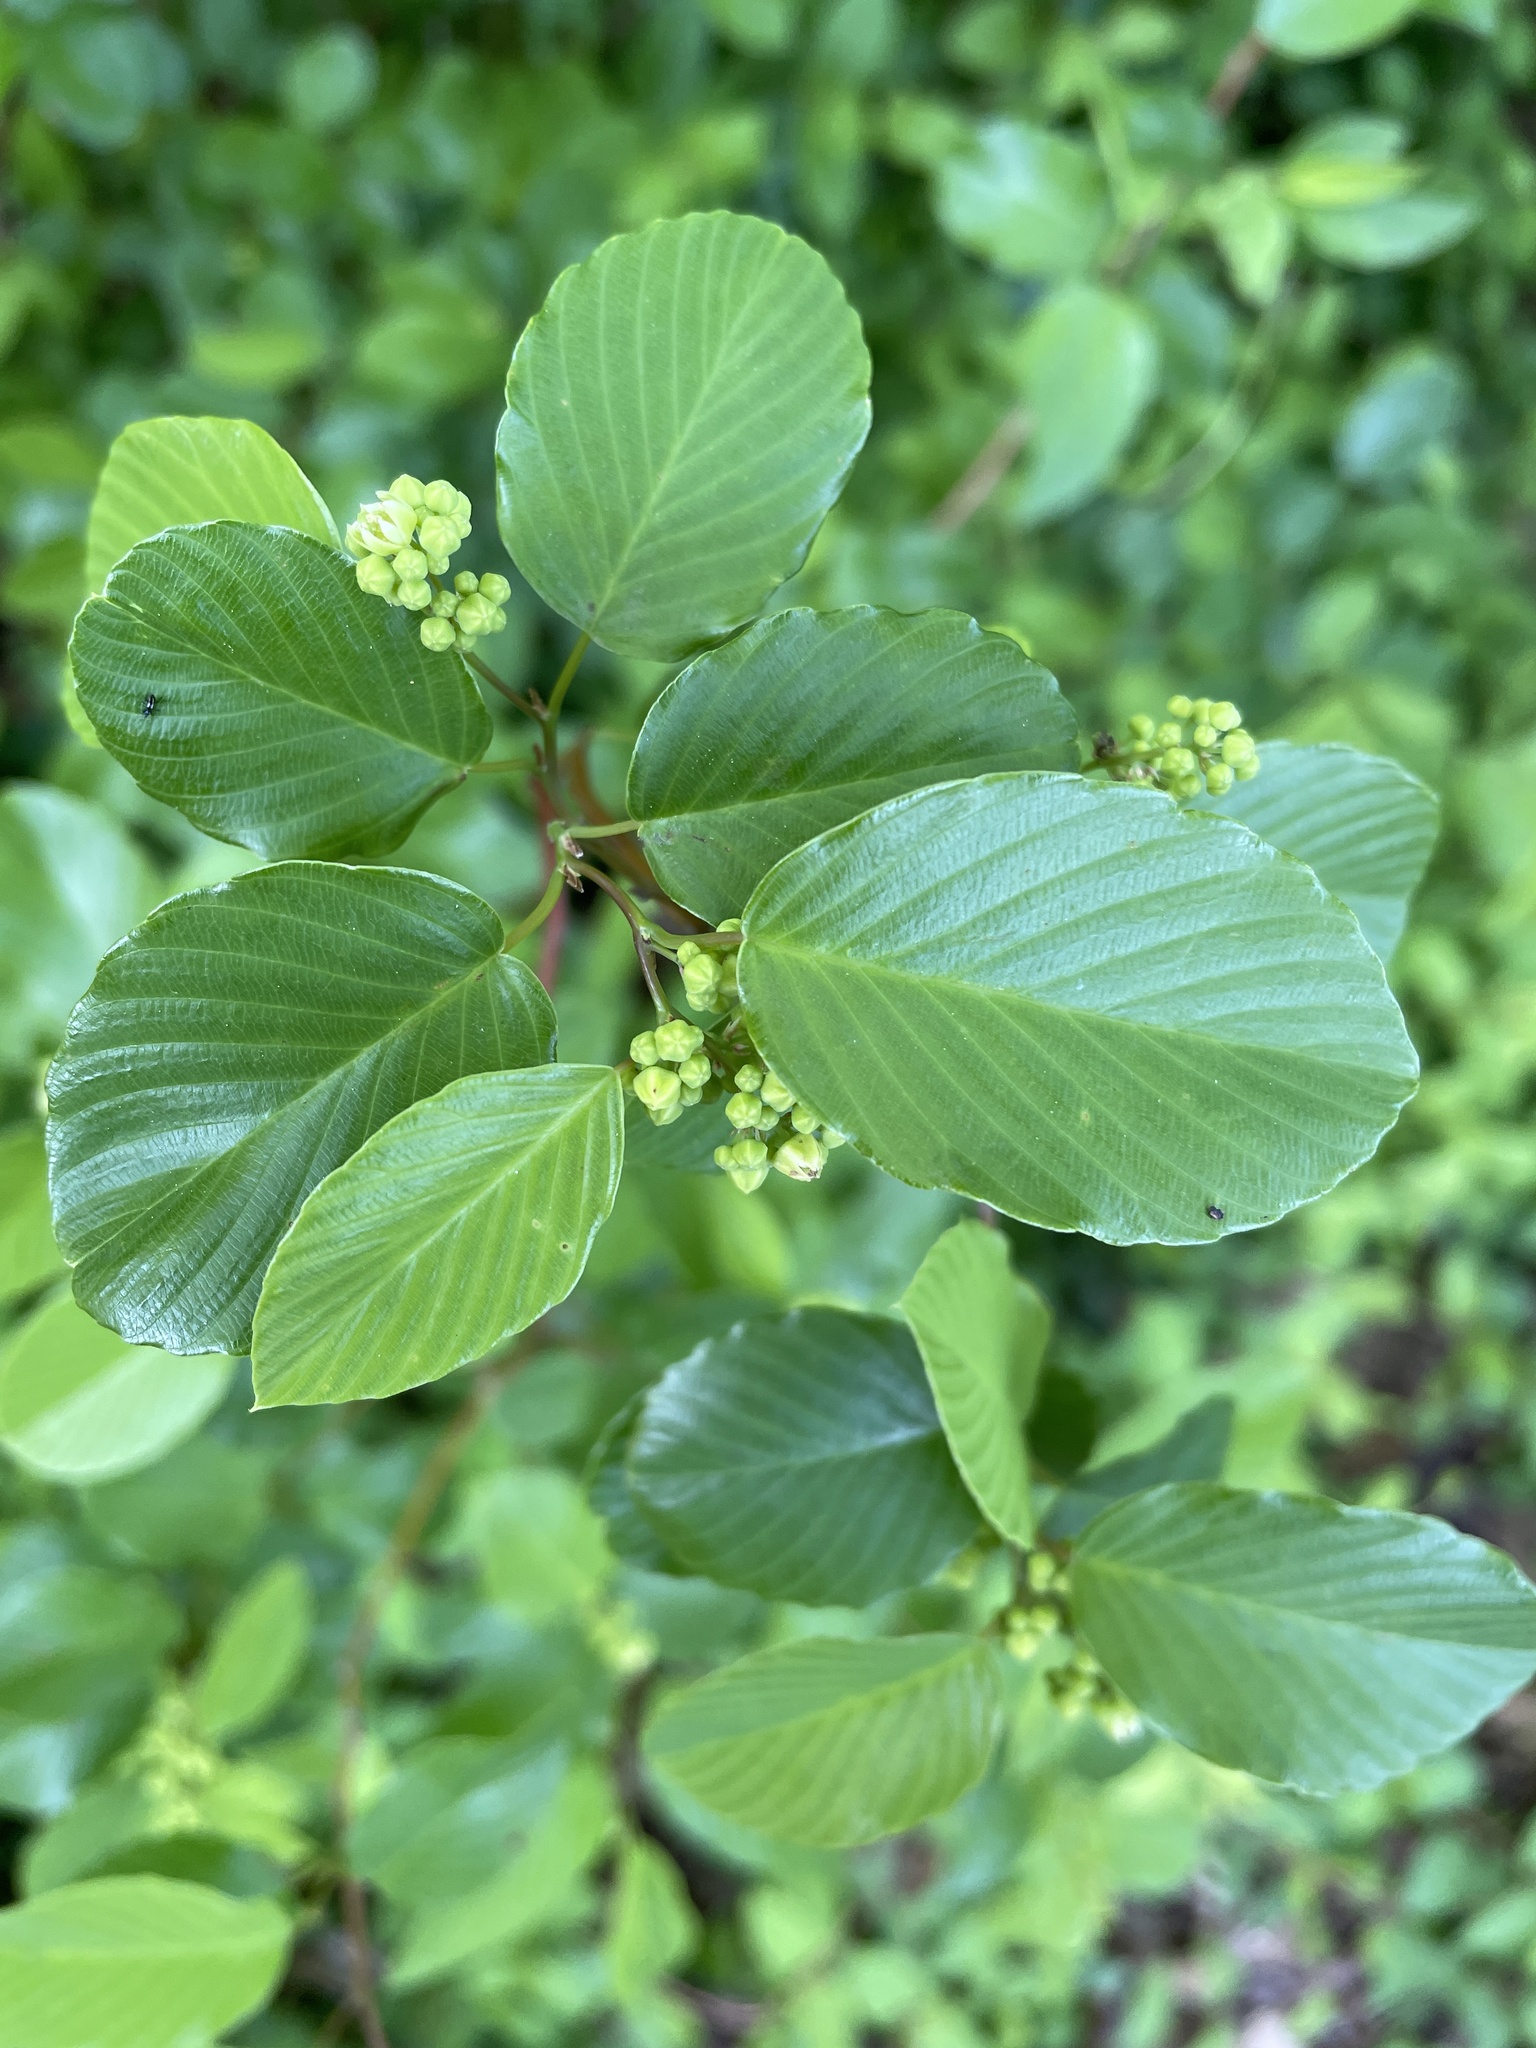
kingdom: Plantae
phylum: Tracheophyta
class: Magnoliopsida
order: Rosales
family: Rhamnaceae
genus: Berchemia
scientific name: Berchemia scandens
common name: Supplejack
